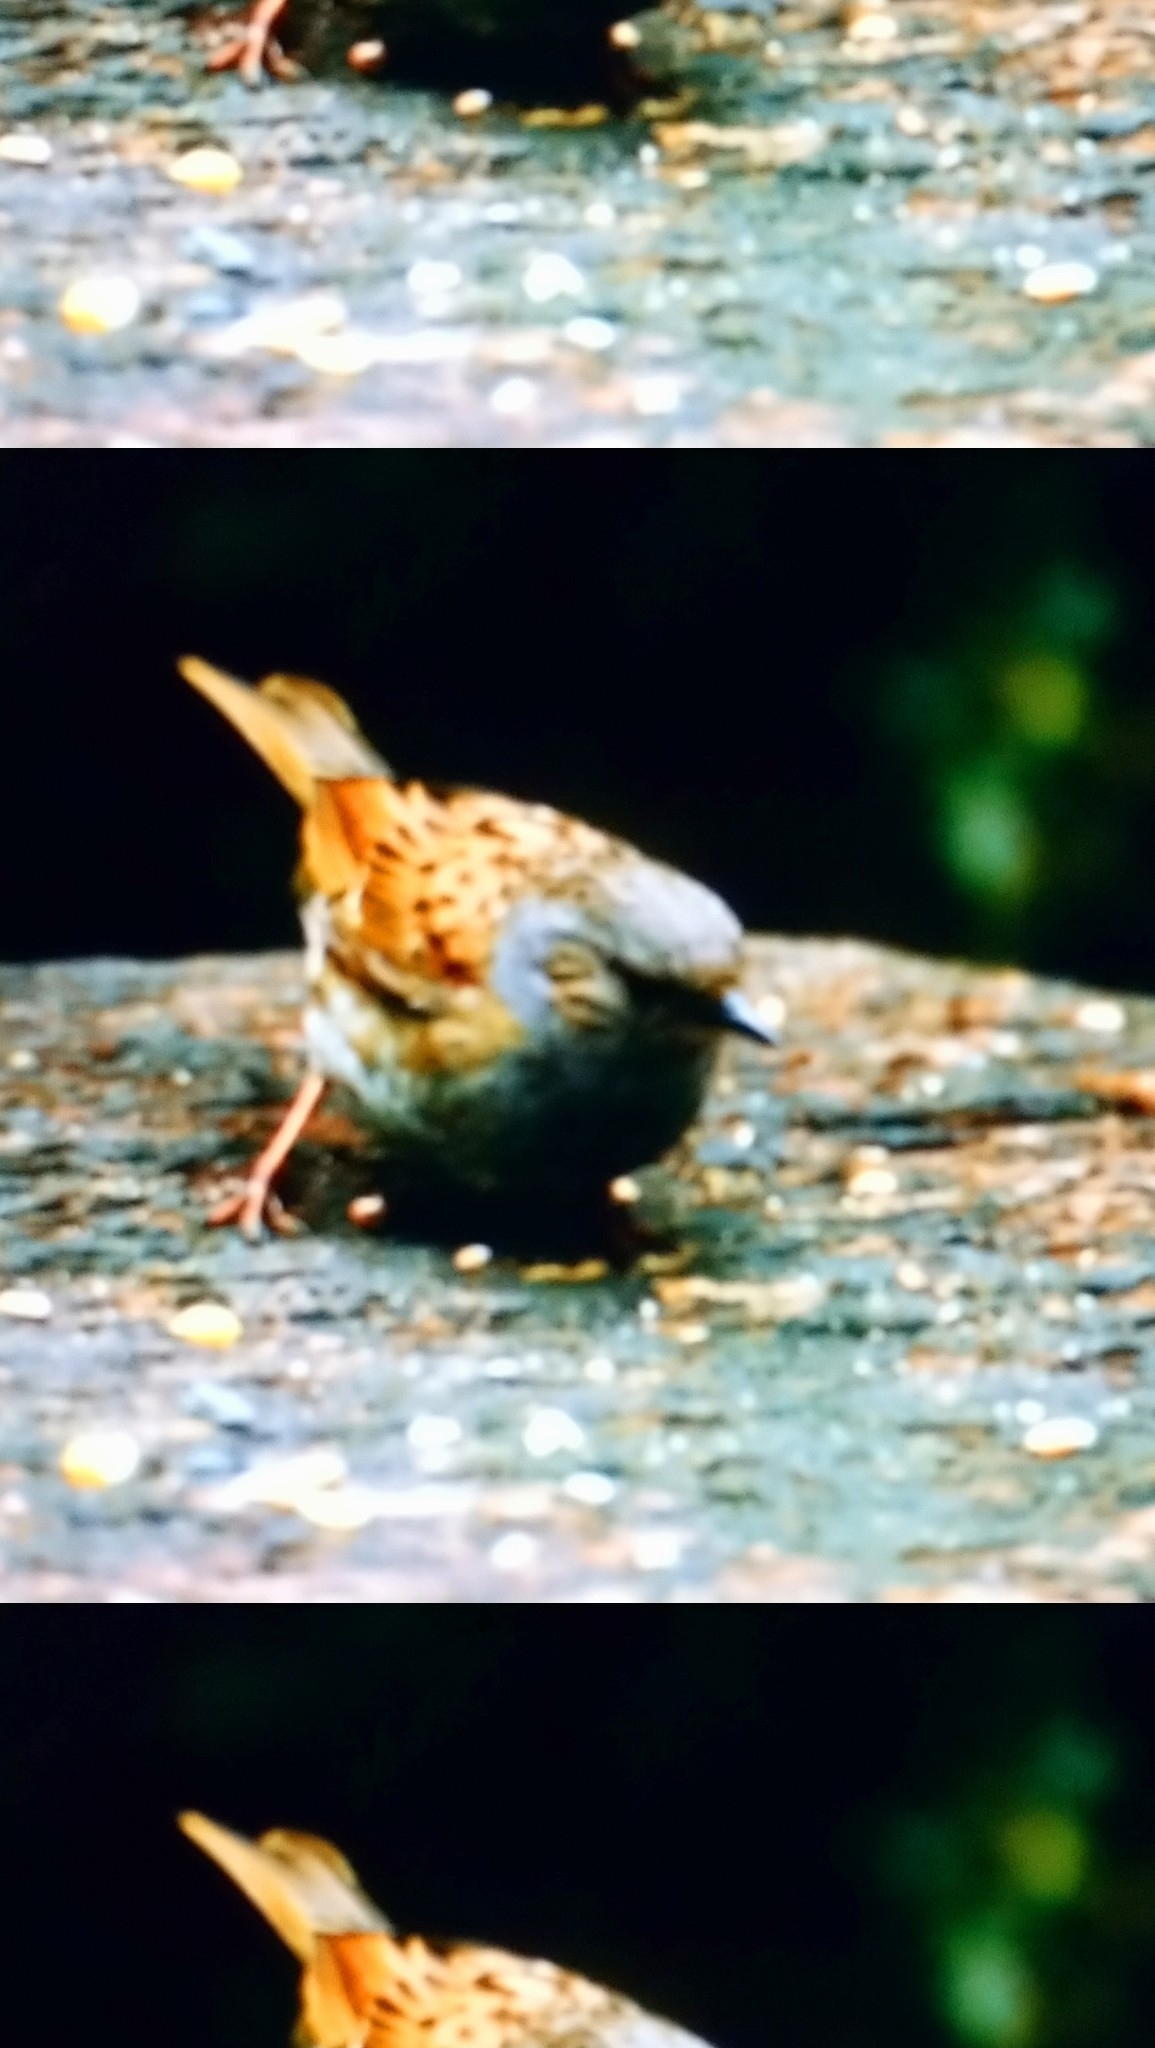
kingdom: Animalia
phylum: Chordata
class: Aves
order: Passeriformes
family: Prunellidae
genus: Prunella
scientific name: Prunella modularis
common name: Dunnock
